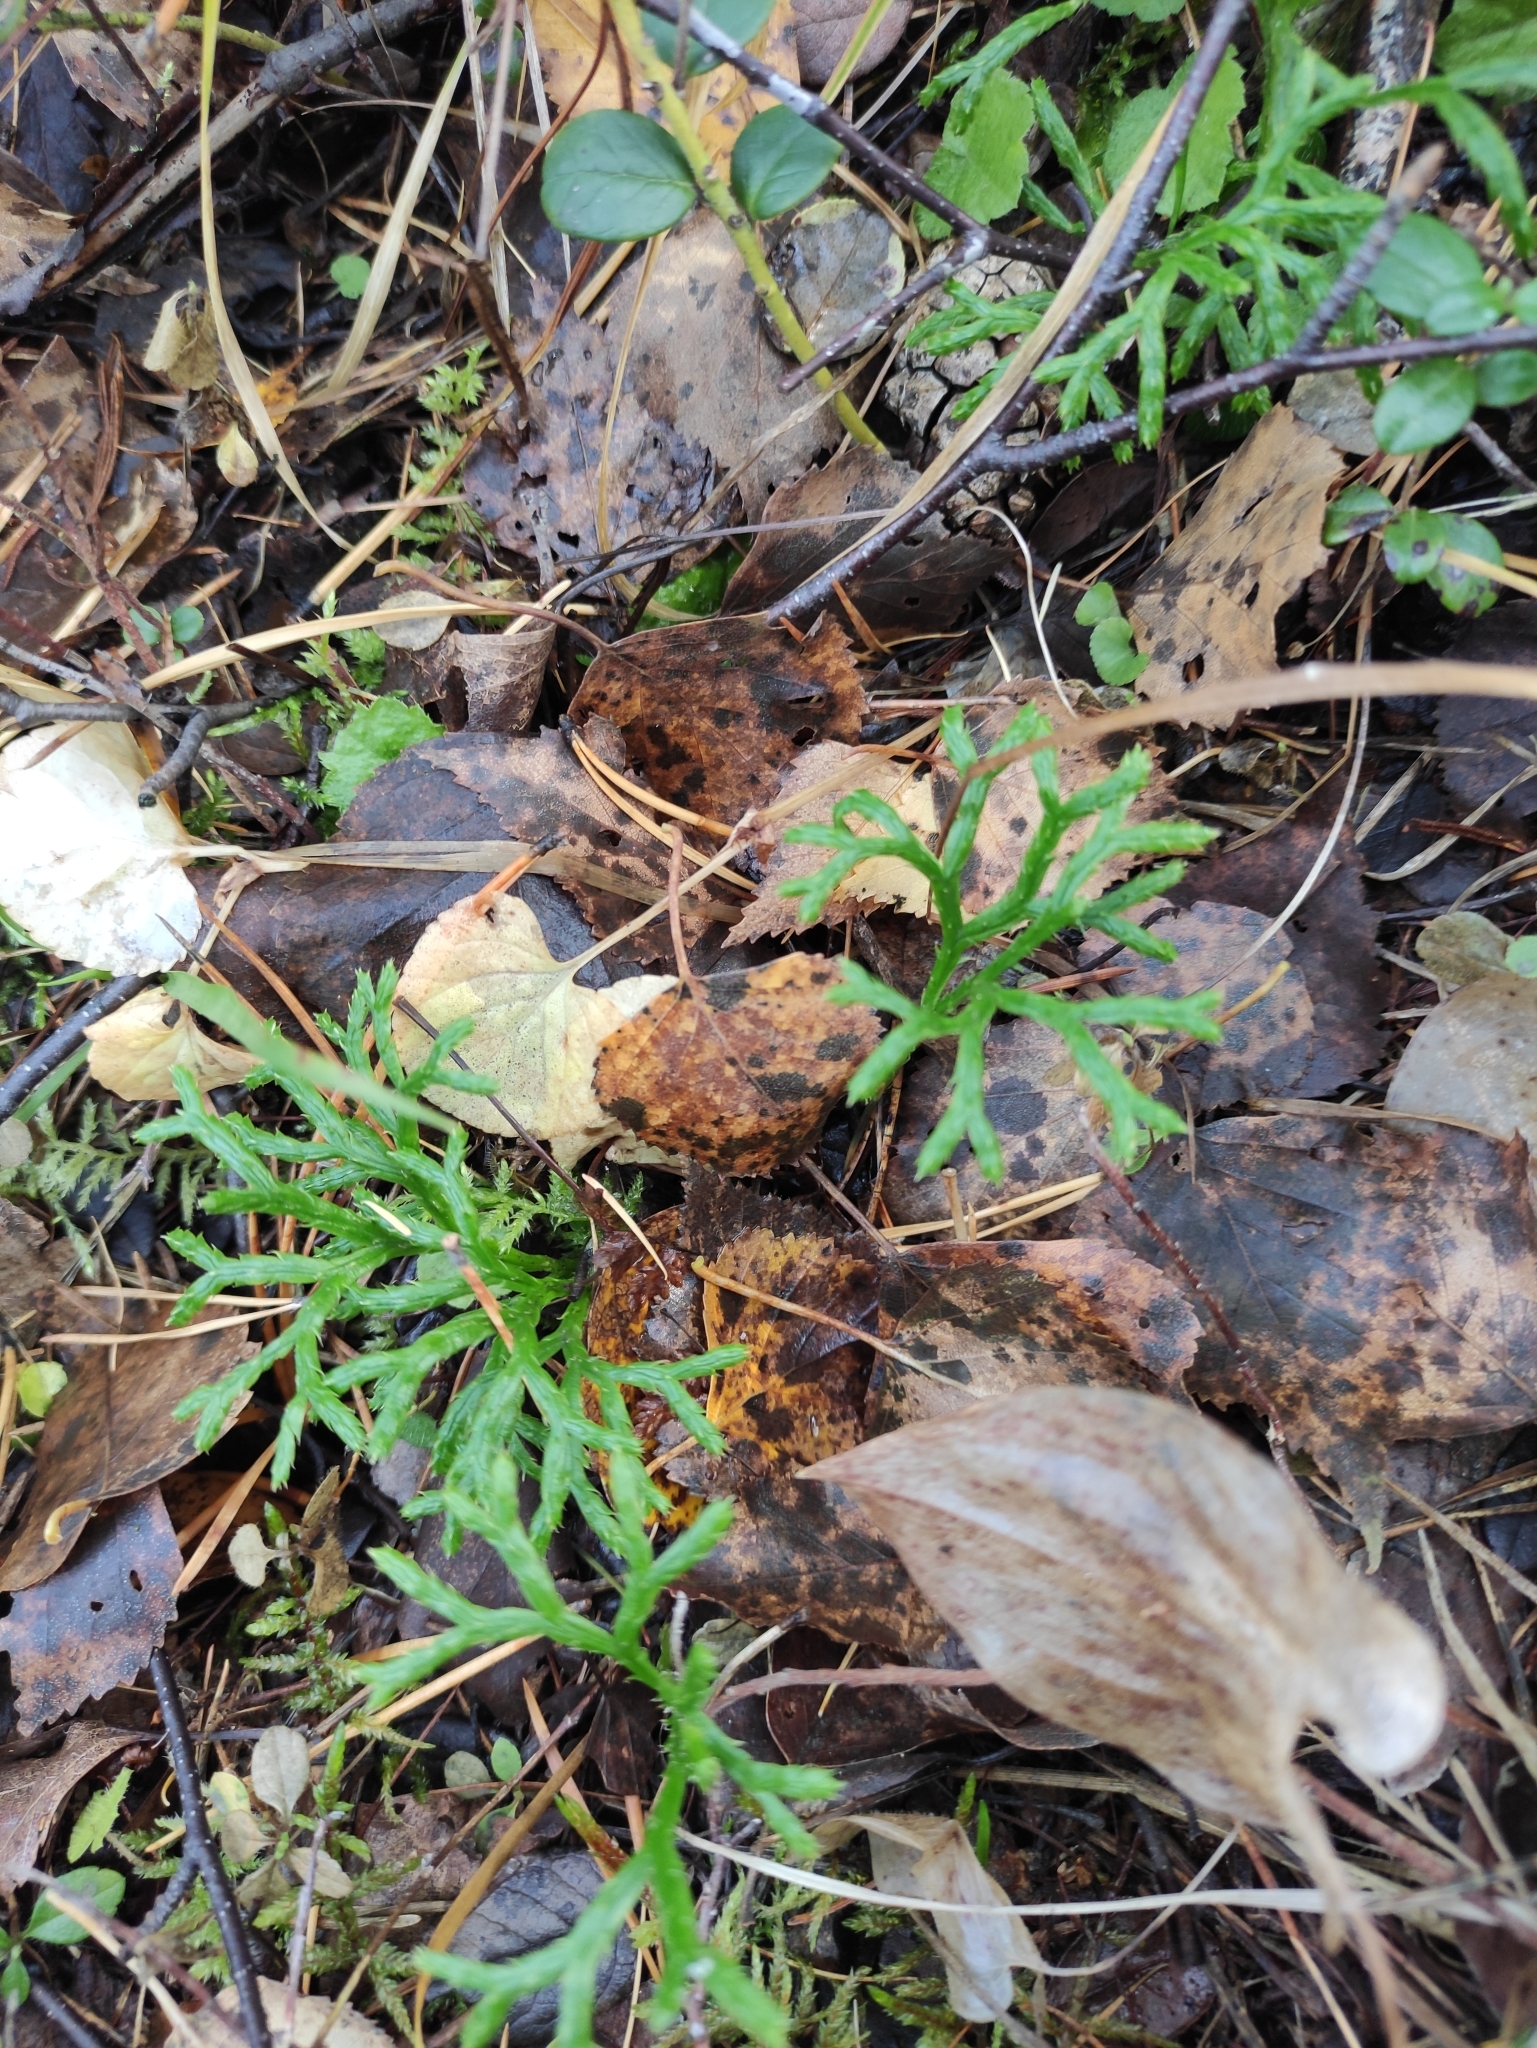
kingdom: Plantae
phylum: Tracheophyta
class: Lycopodiopsida
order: Lycopodiales
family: Lycopodiaceae
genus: Diphasiastrum
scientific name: Diphasiastrum complanatum
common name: Northern running-pine
